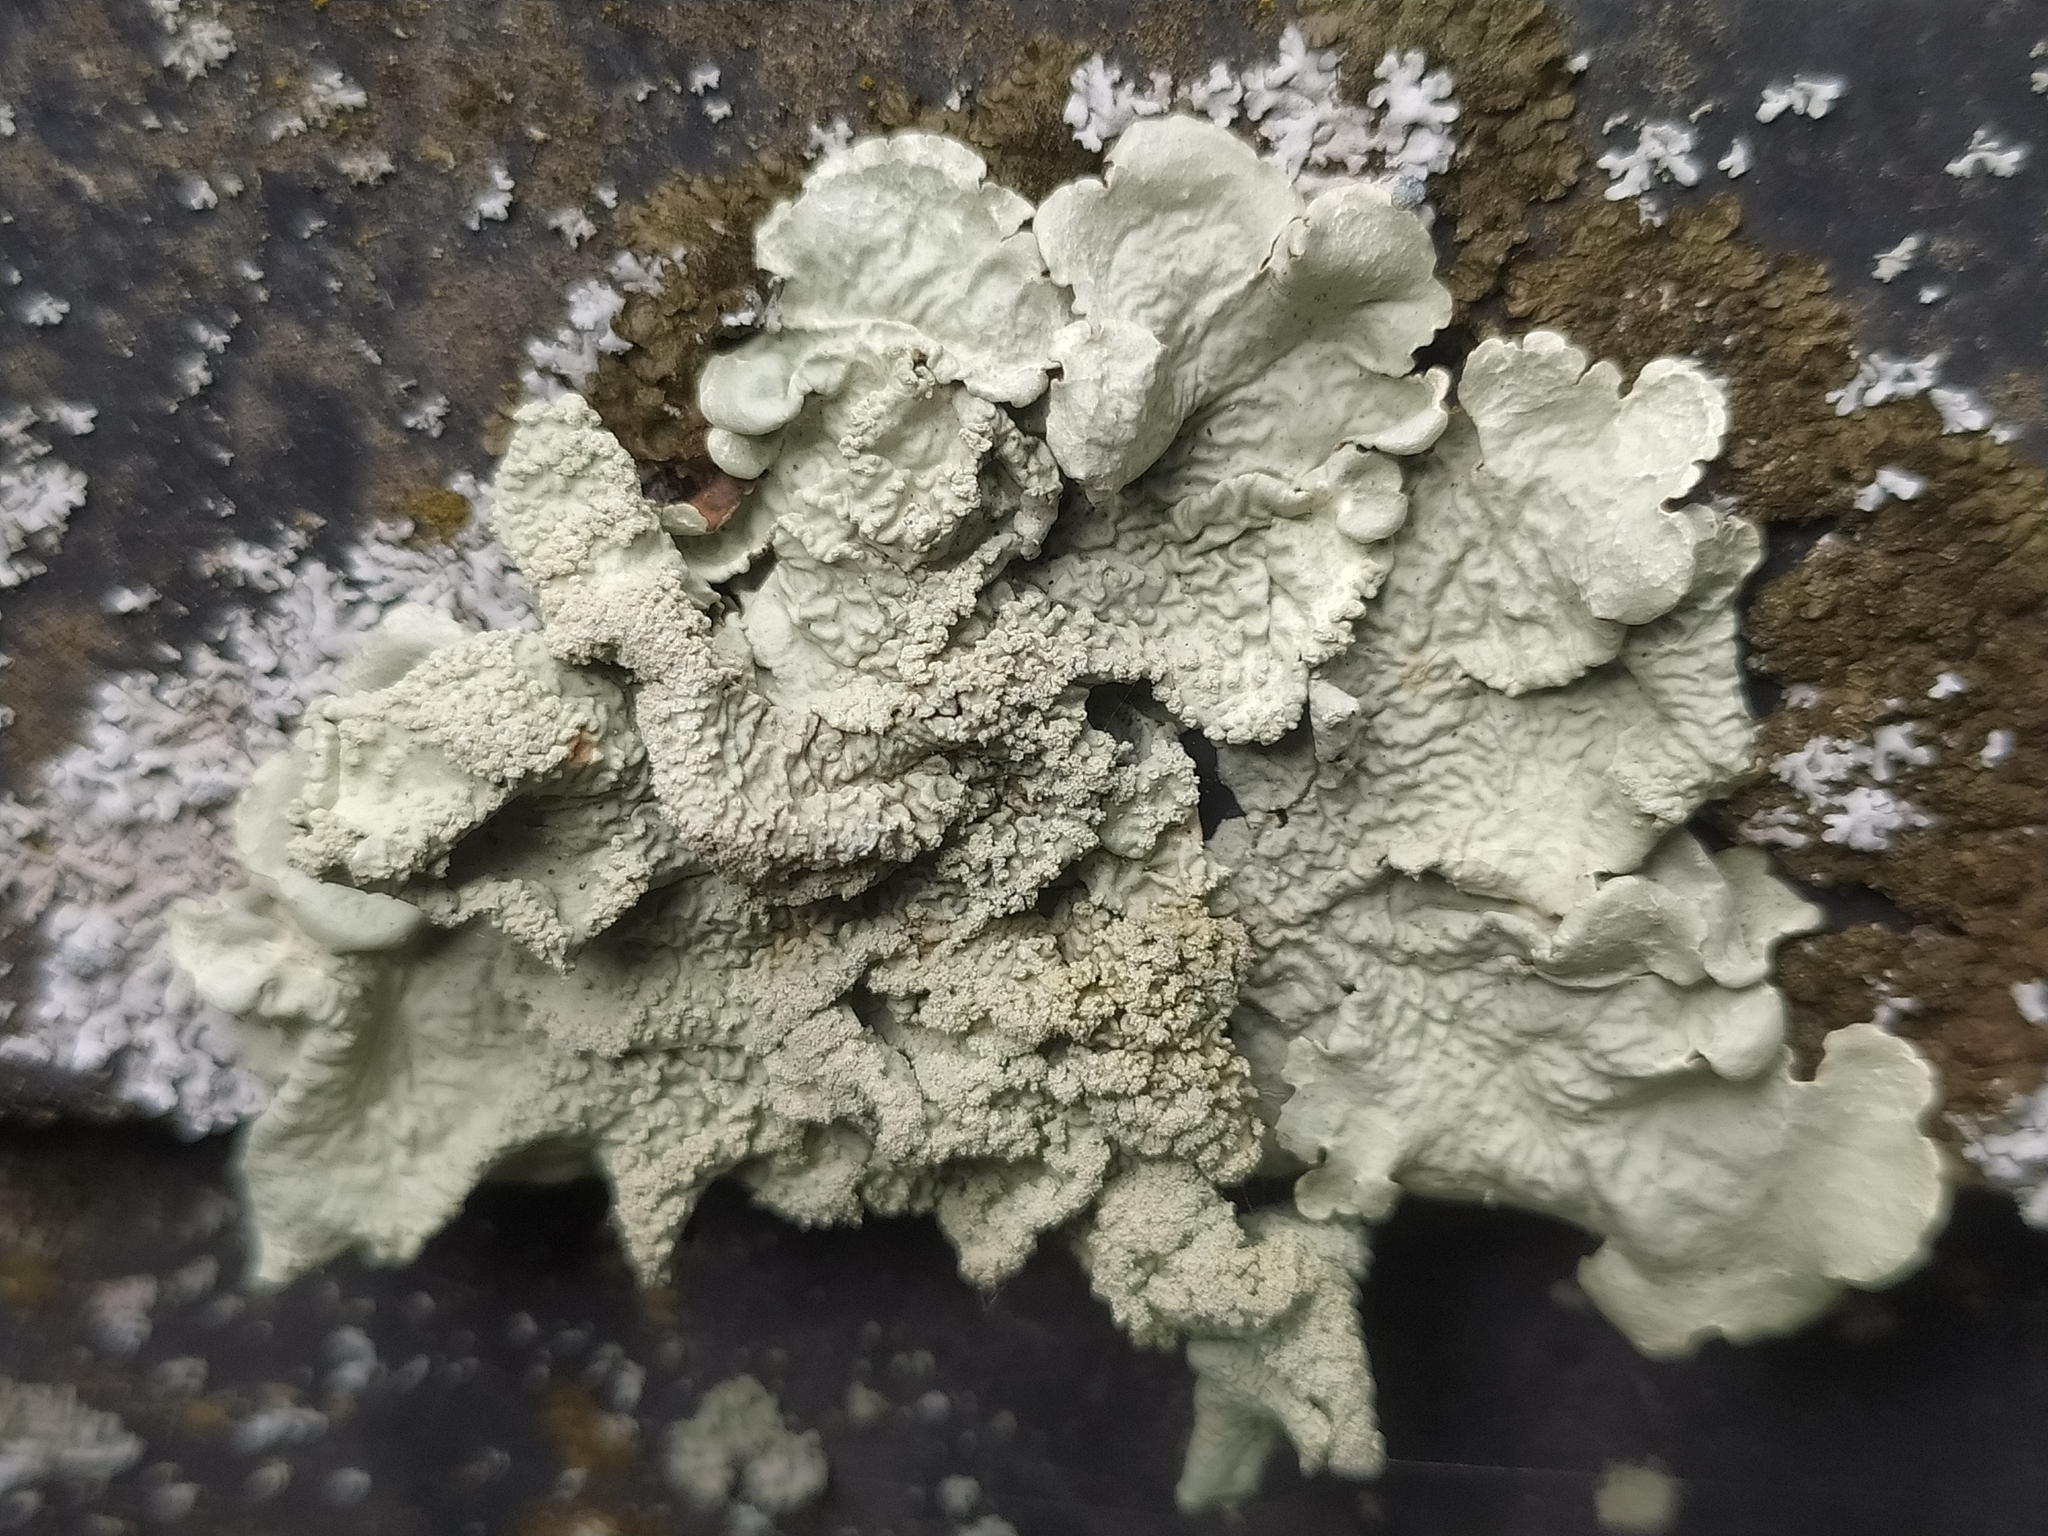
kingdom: Fungi
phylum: Ascomycota
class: Lecanoromycetes
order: Lecanorales
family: Parmeliaceae
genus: Flavoparmelia
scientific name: Flavoparmelia caperata
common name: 40-mile per hour lichen
